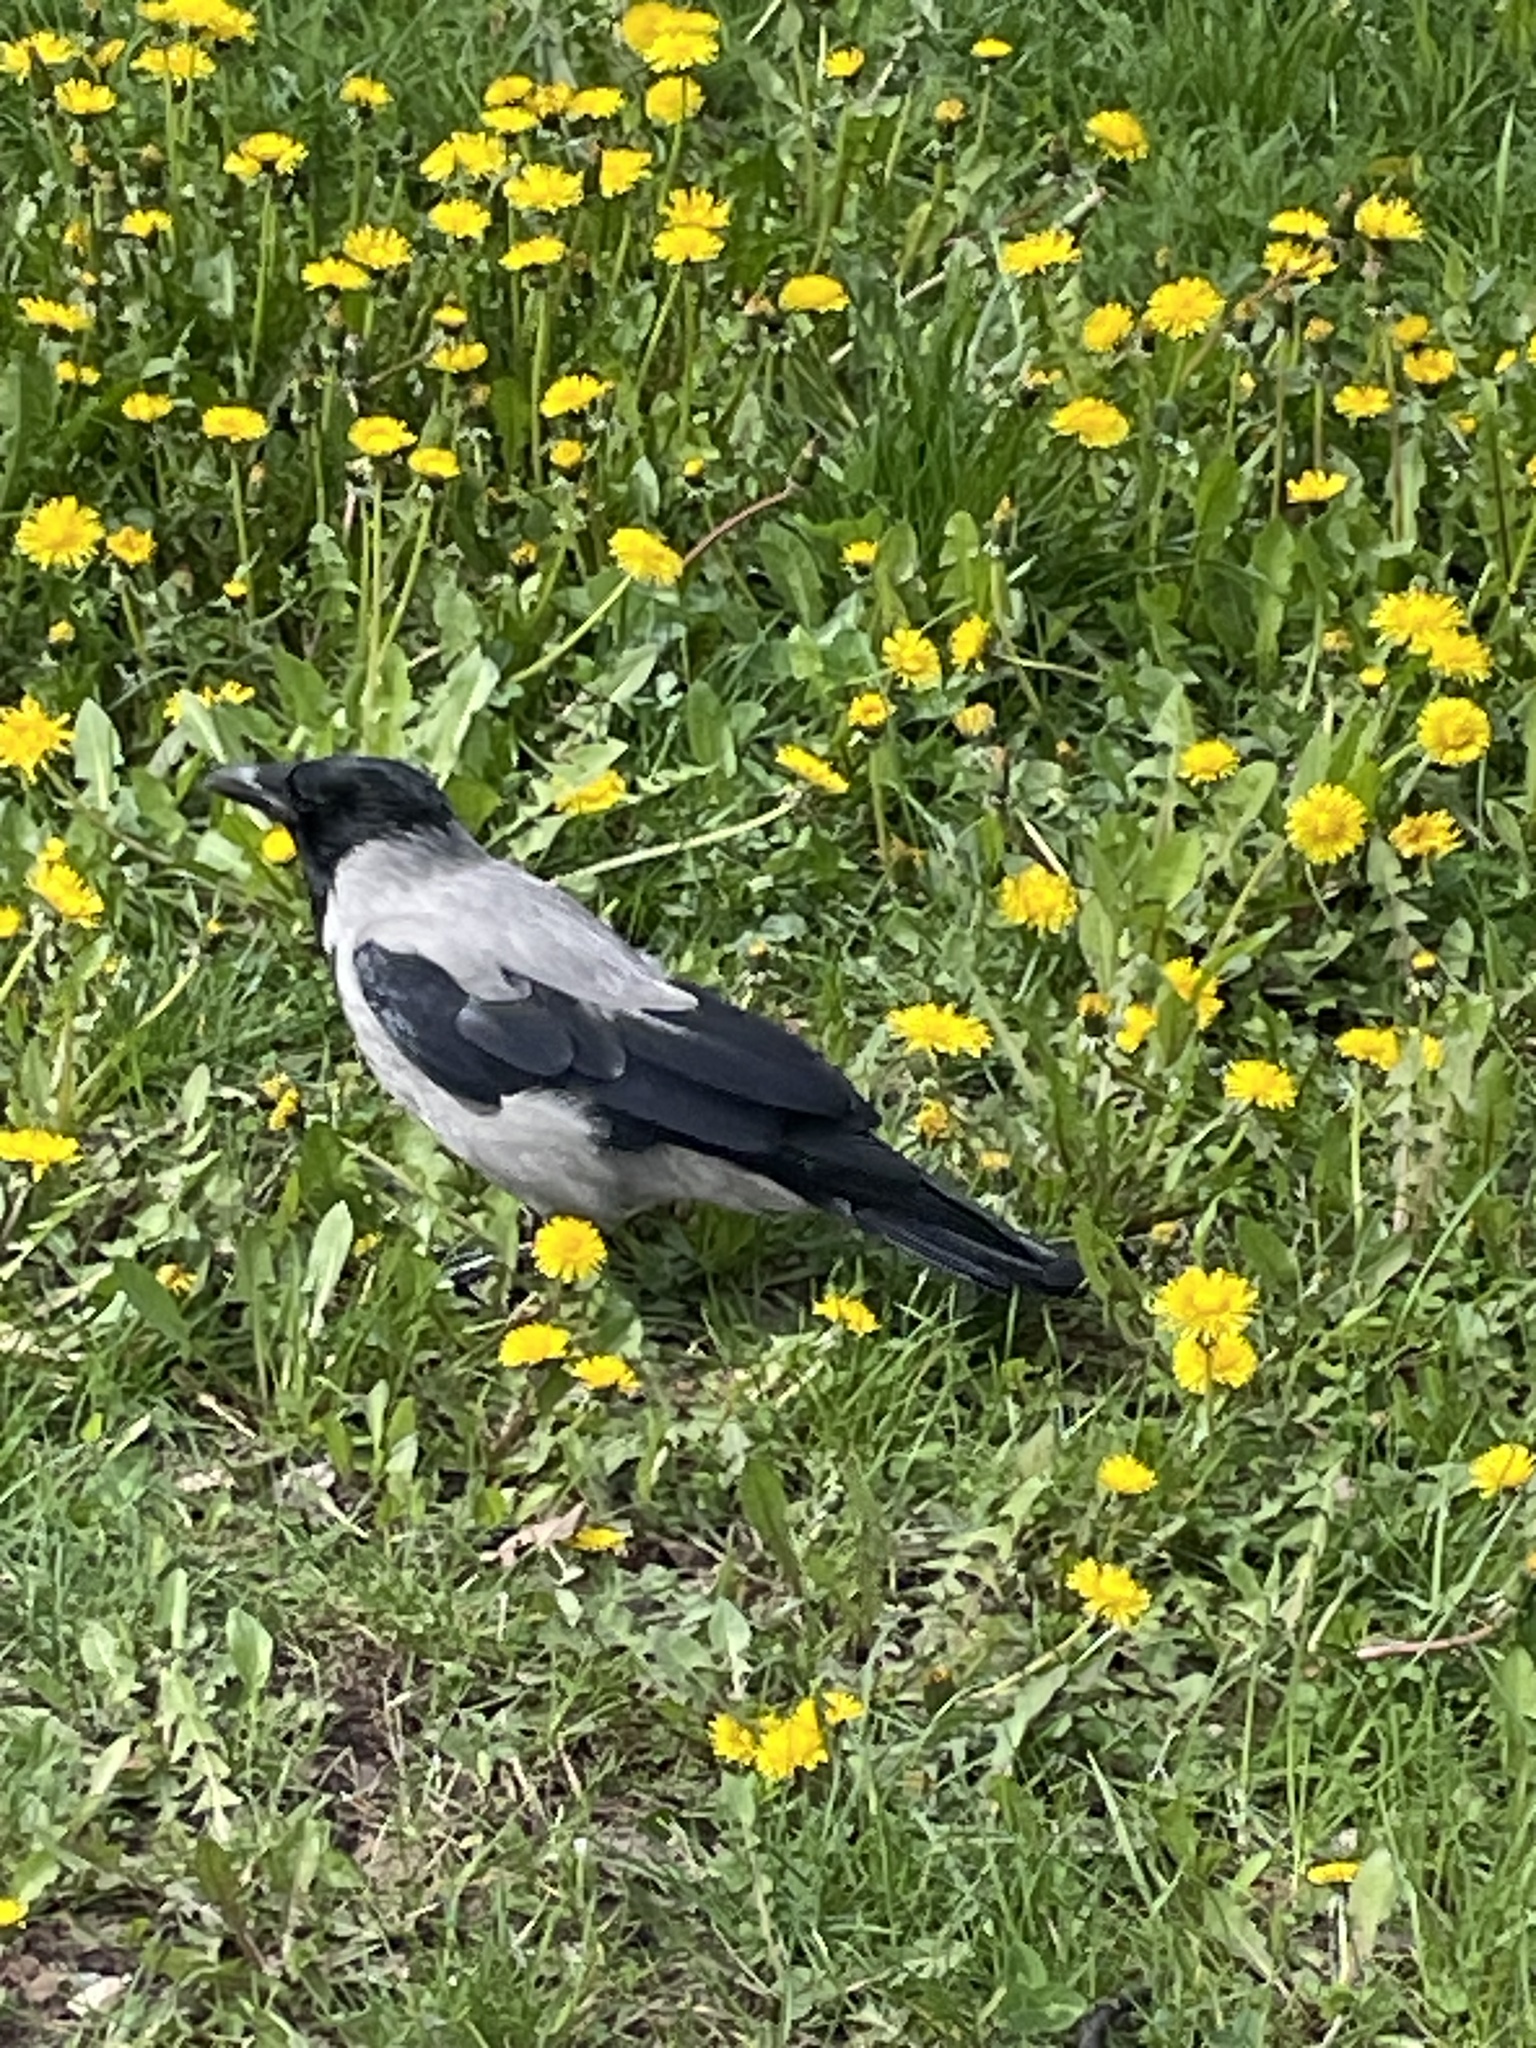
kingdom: Animalia
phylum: Chordata
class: Aves
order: Passeriformes
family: Corvidae
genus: Corvus
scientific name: Corvus cornix
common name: Hooded crow
